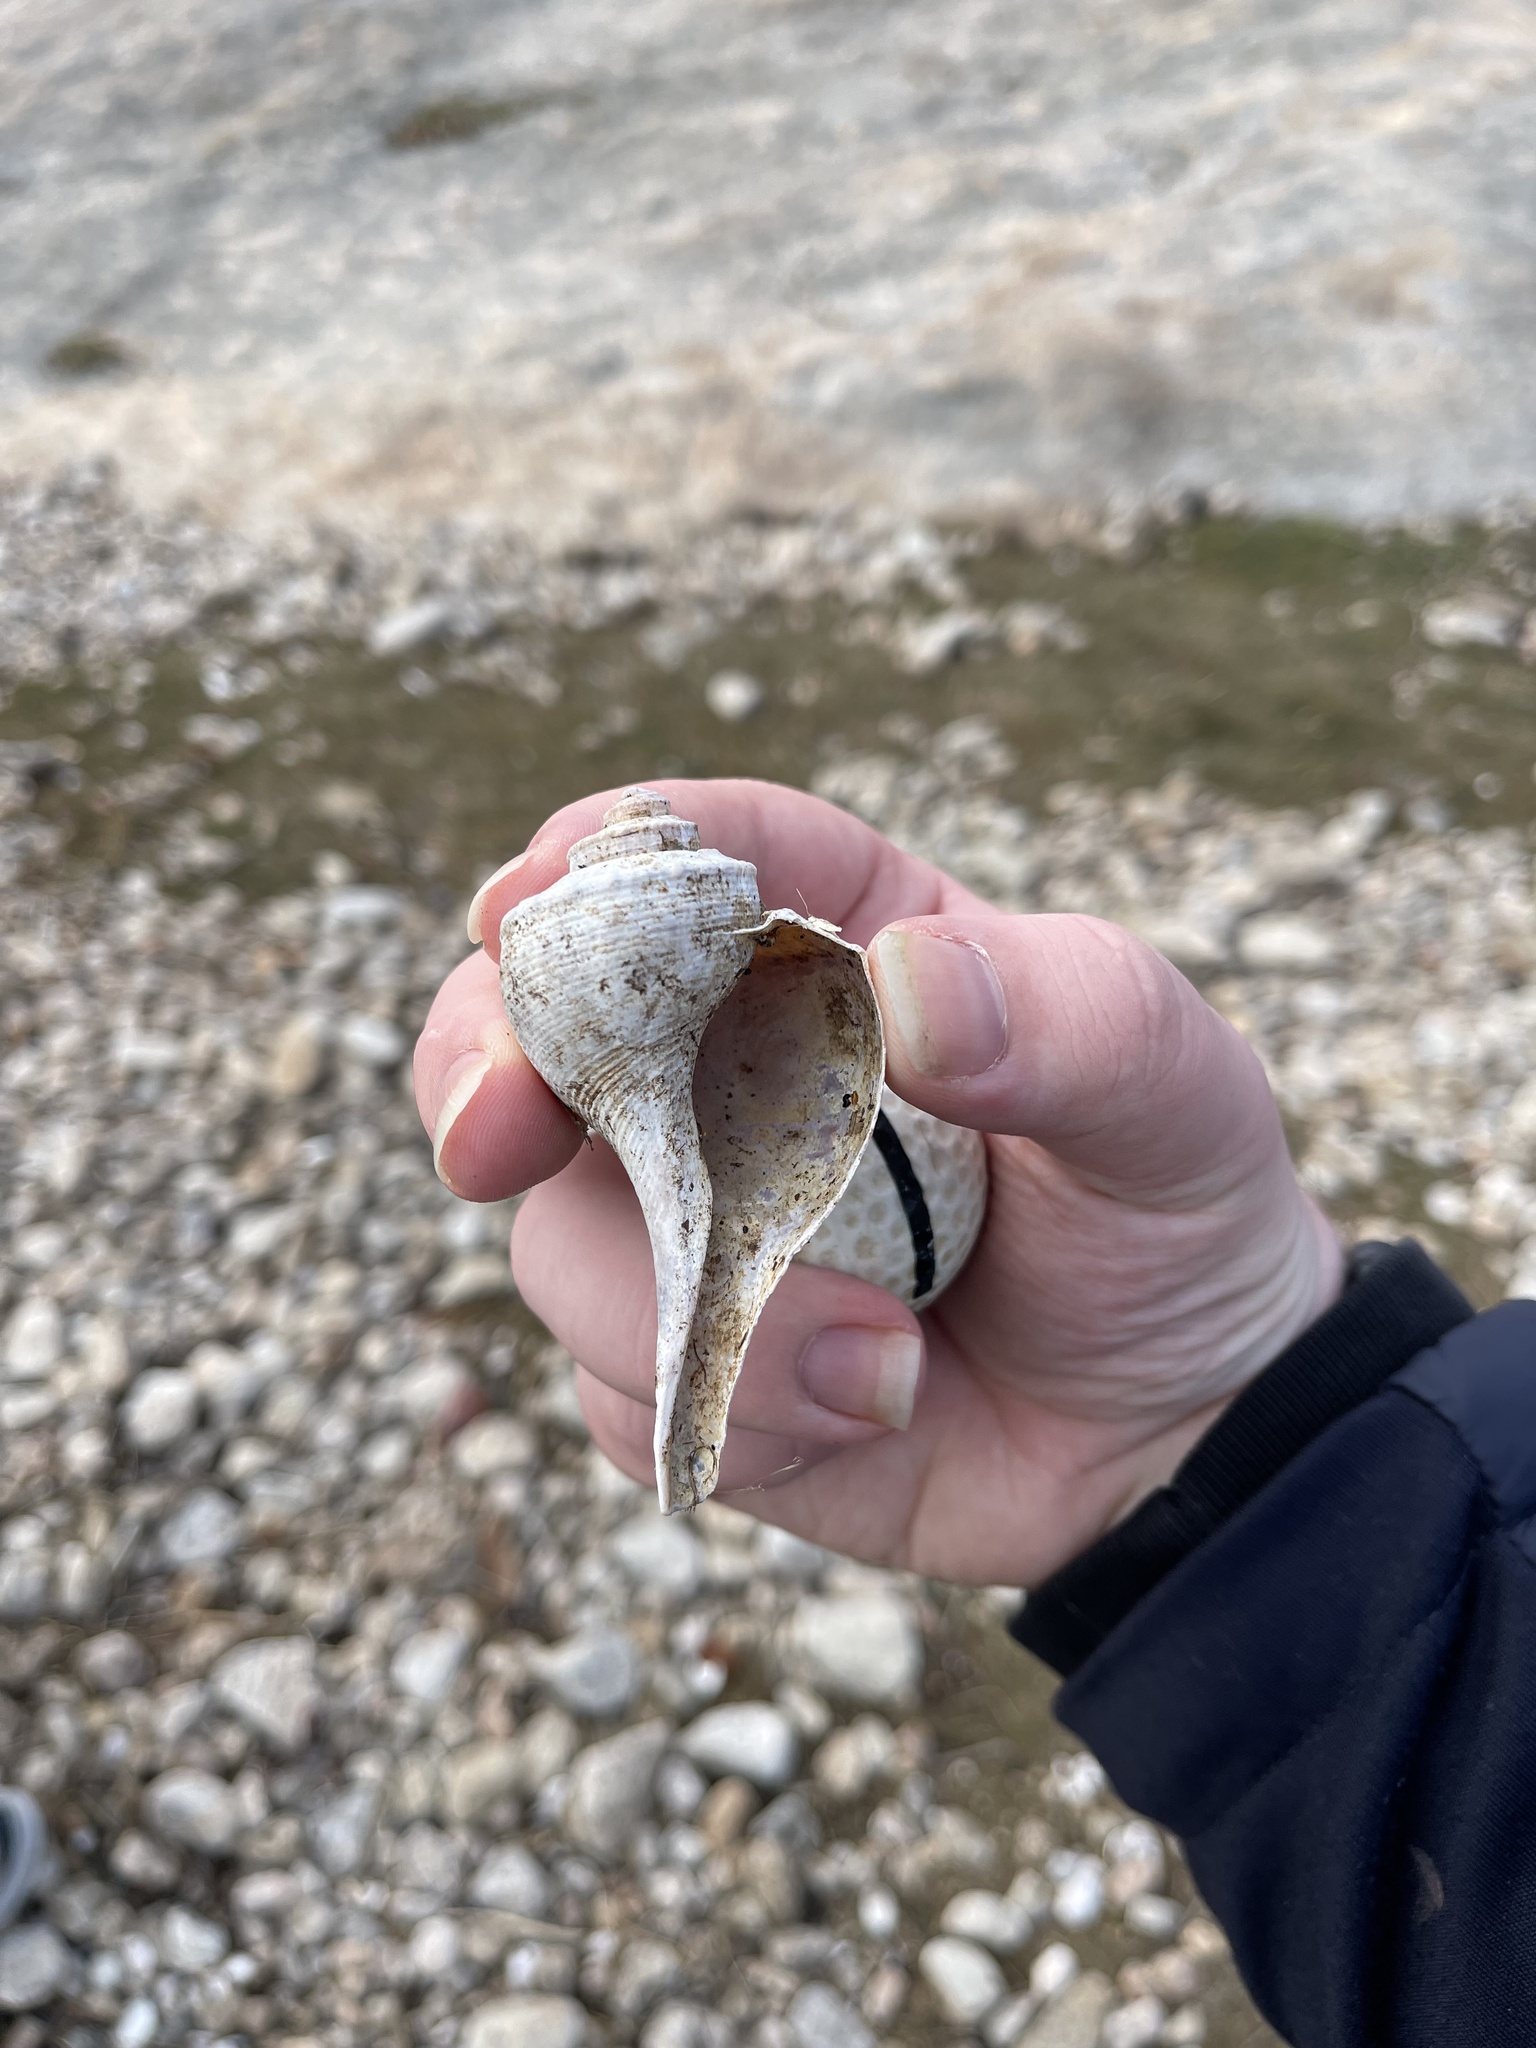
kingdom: Animalia
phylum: Mollusca
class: Gastropoda
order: Neogastropoda
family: Busyconidae
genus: Busycotypus
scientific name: Busycotypus canaliculatus
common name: Channeled whelk
